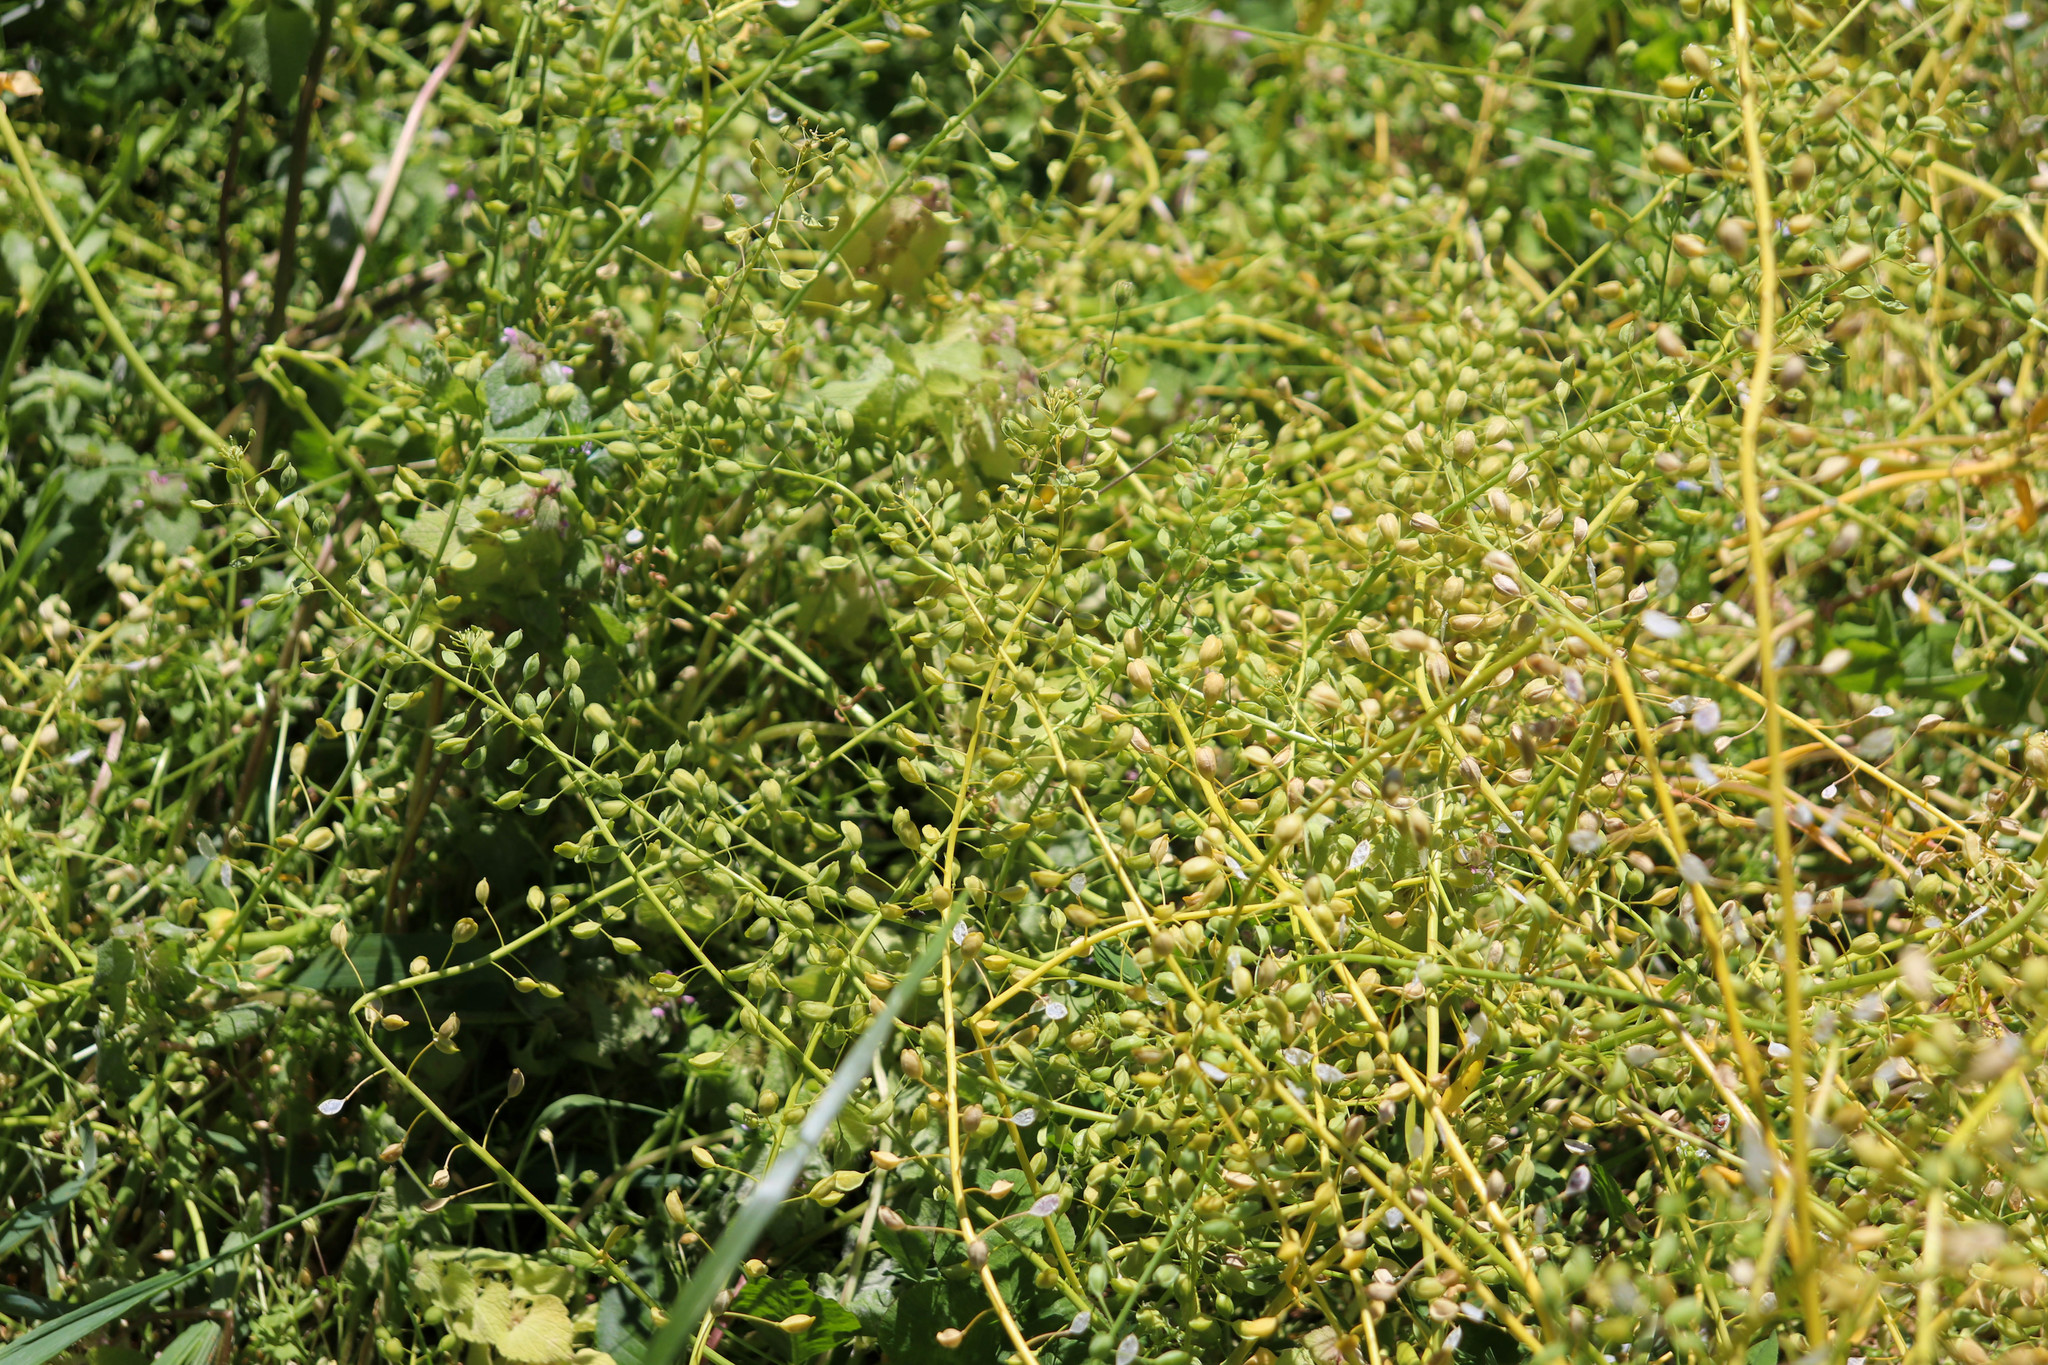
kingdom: Plantae
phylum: Tracheophyta
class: Magnoliopsida
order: Brassicales
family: Brassicaceae
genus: Mummenhoffia
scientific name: Mummenhoffia alliacea
